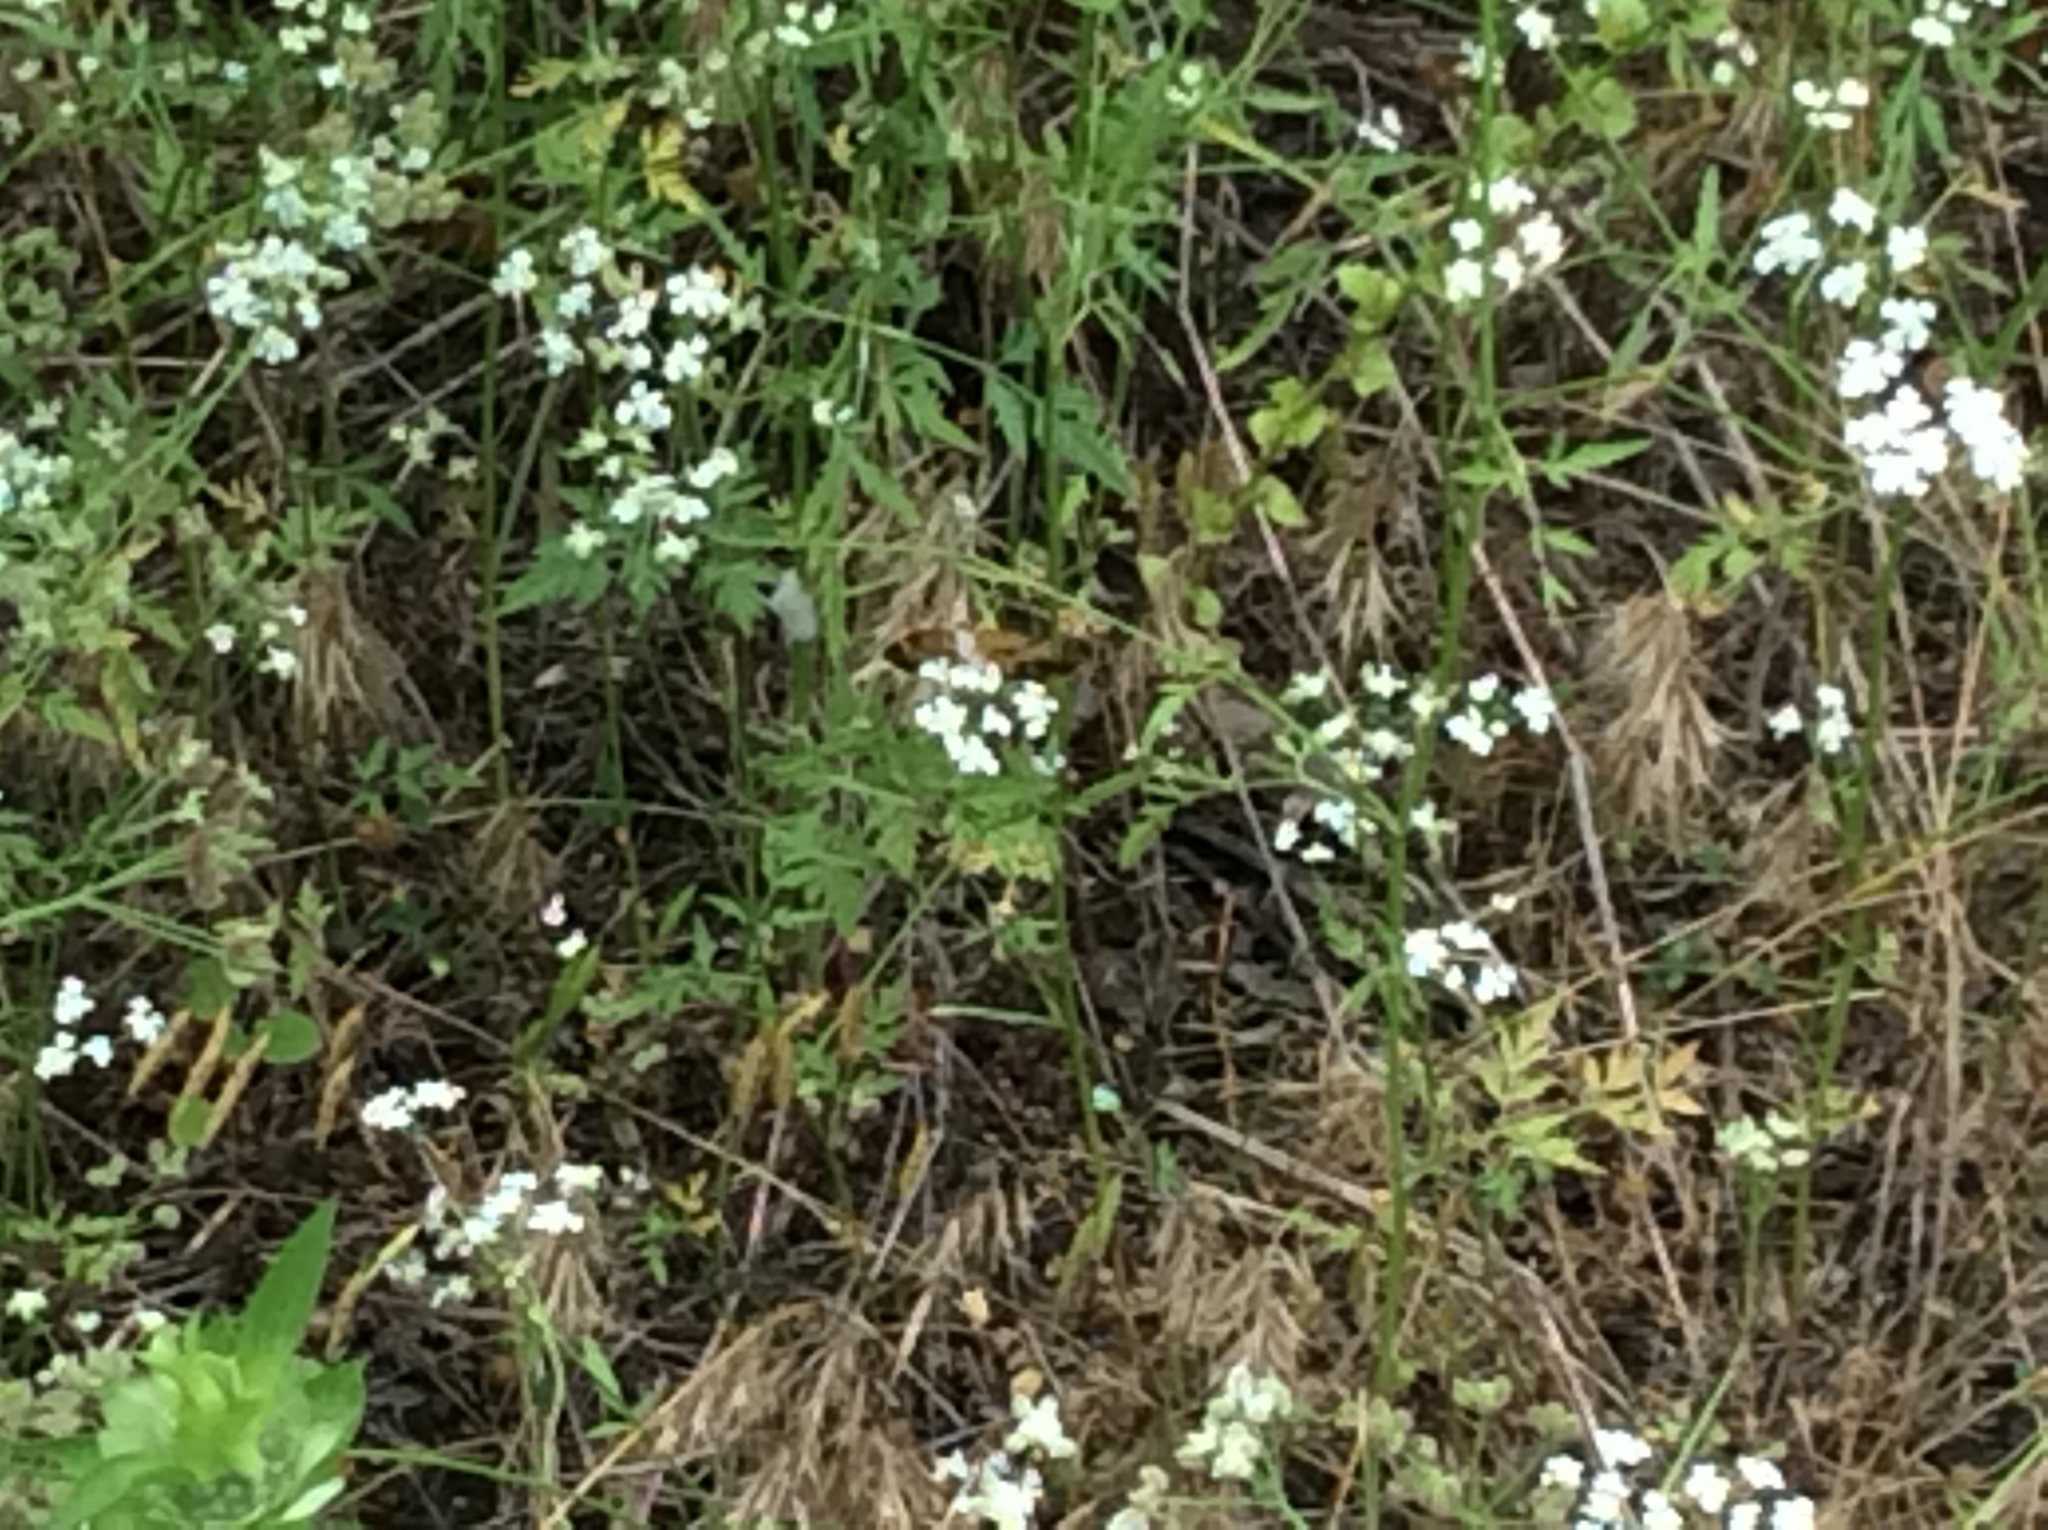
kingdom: Plantae
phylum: Tracheophyta
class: Magnoliopsida
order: Apiales
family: Apiaceae
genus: Torilis
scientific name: Torilis arvensis
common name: Spreading hedge-parsley
